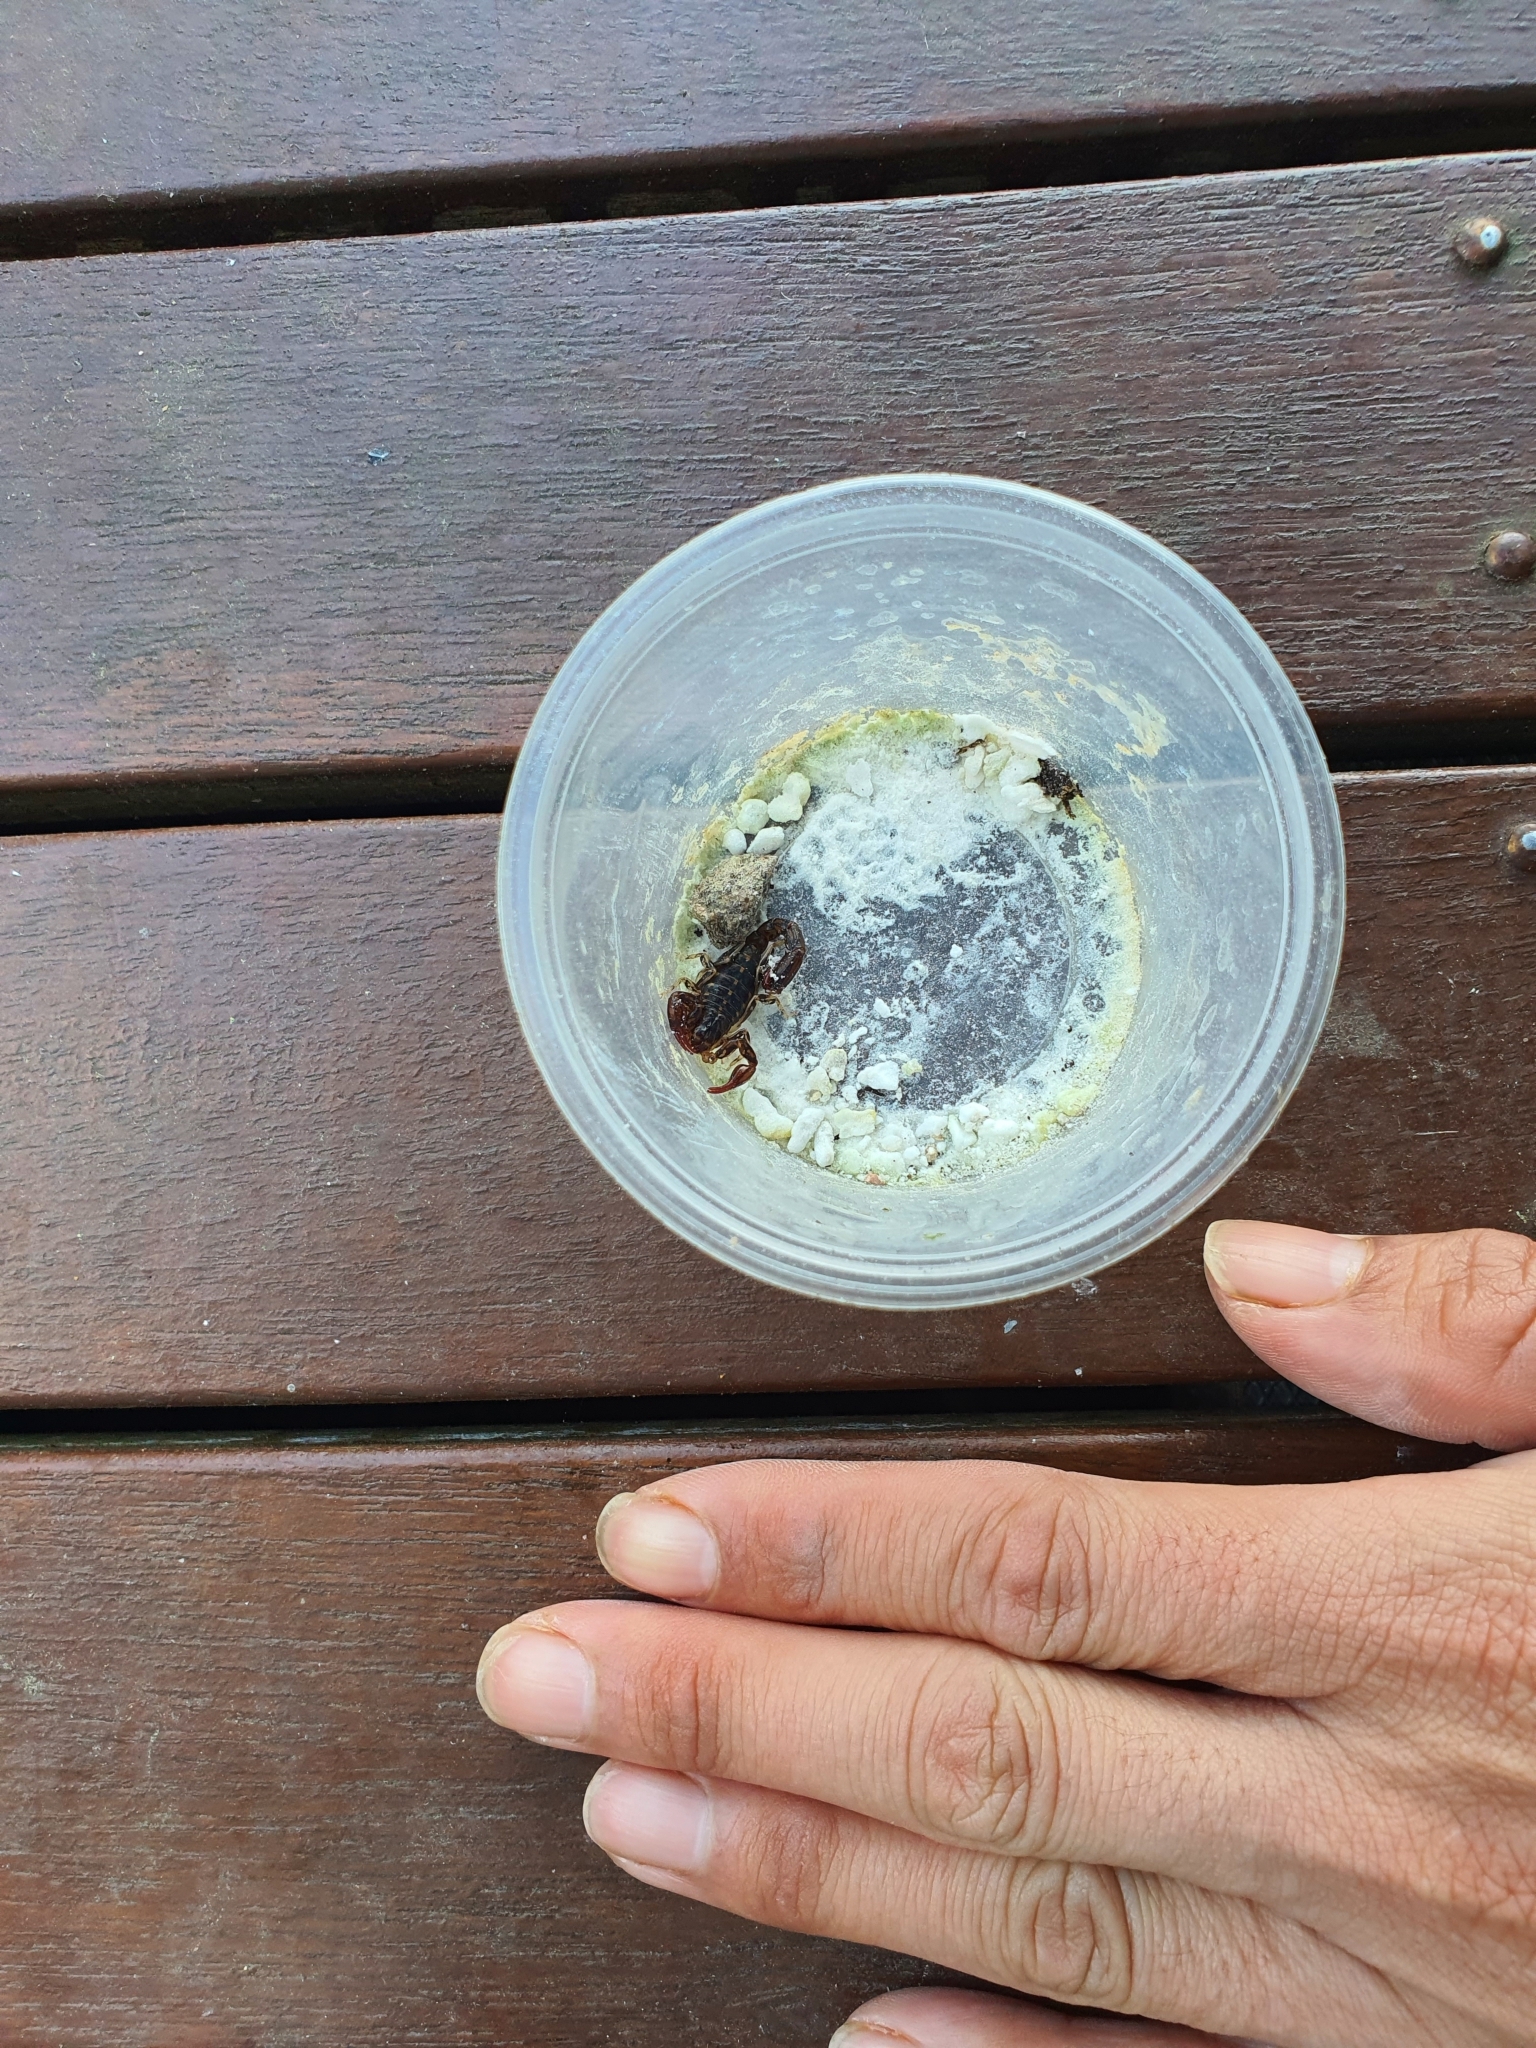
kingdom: Animalia
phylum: Arthropoda
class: Arachnida
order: Scorpiones
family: Bothriuridae
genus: Cercophonius
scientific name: Cercophonius squama
